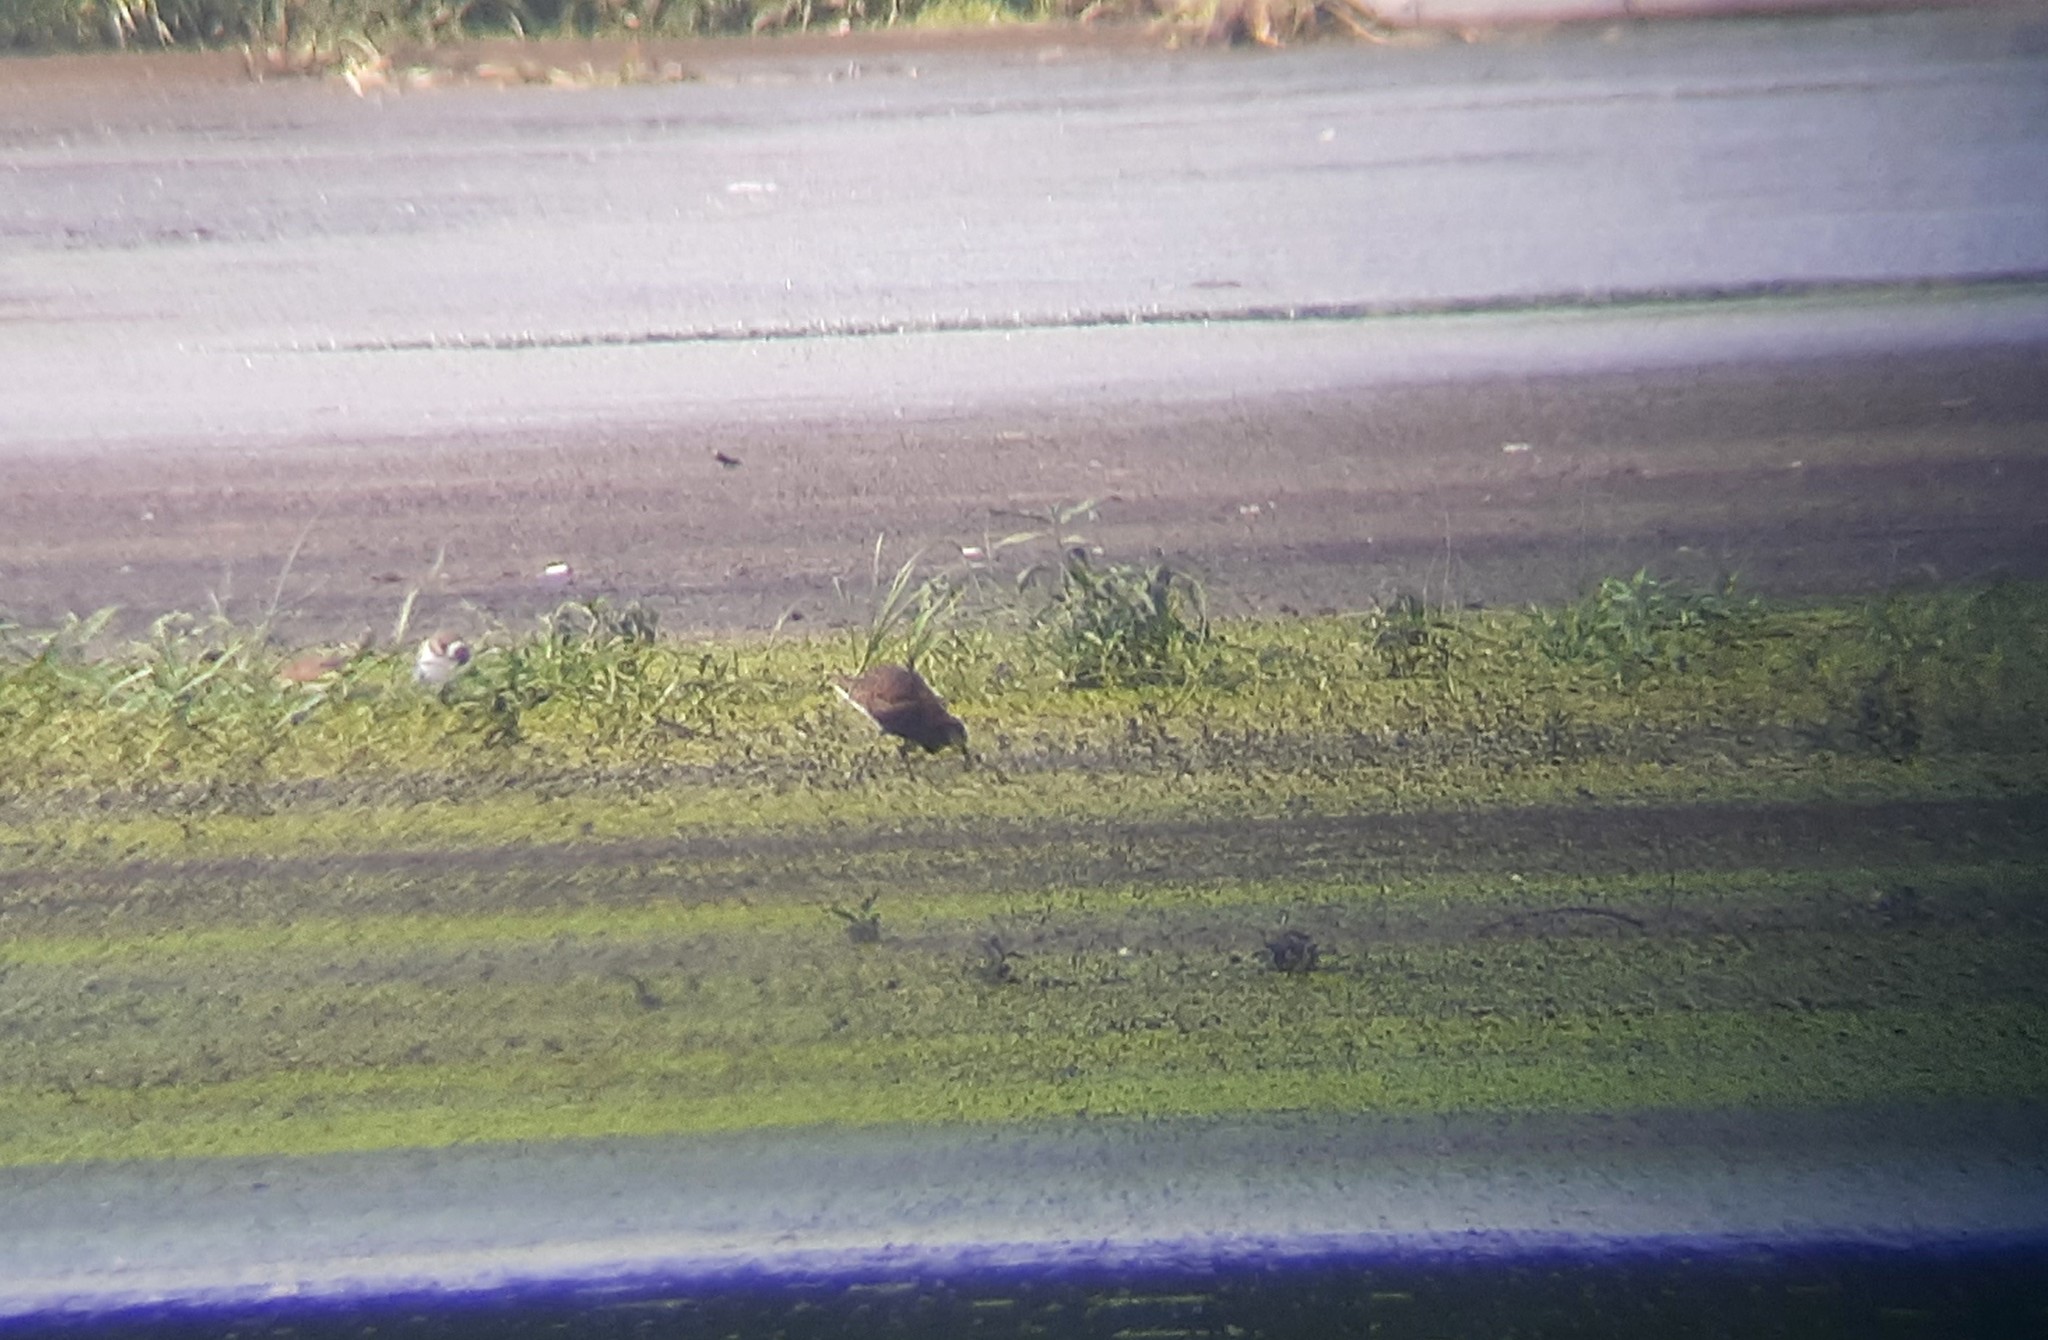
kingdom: Animalia
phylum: Chordata
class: Aves
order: Charadriiformes
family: Scolopacidae
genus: Calidris
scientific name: Calidris pugnax
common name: Ruff
